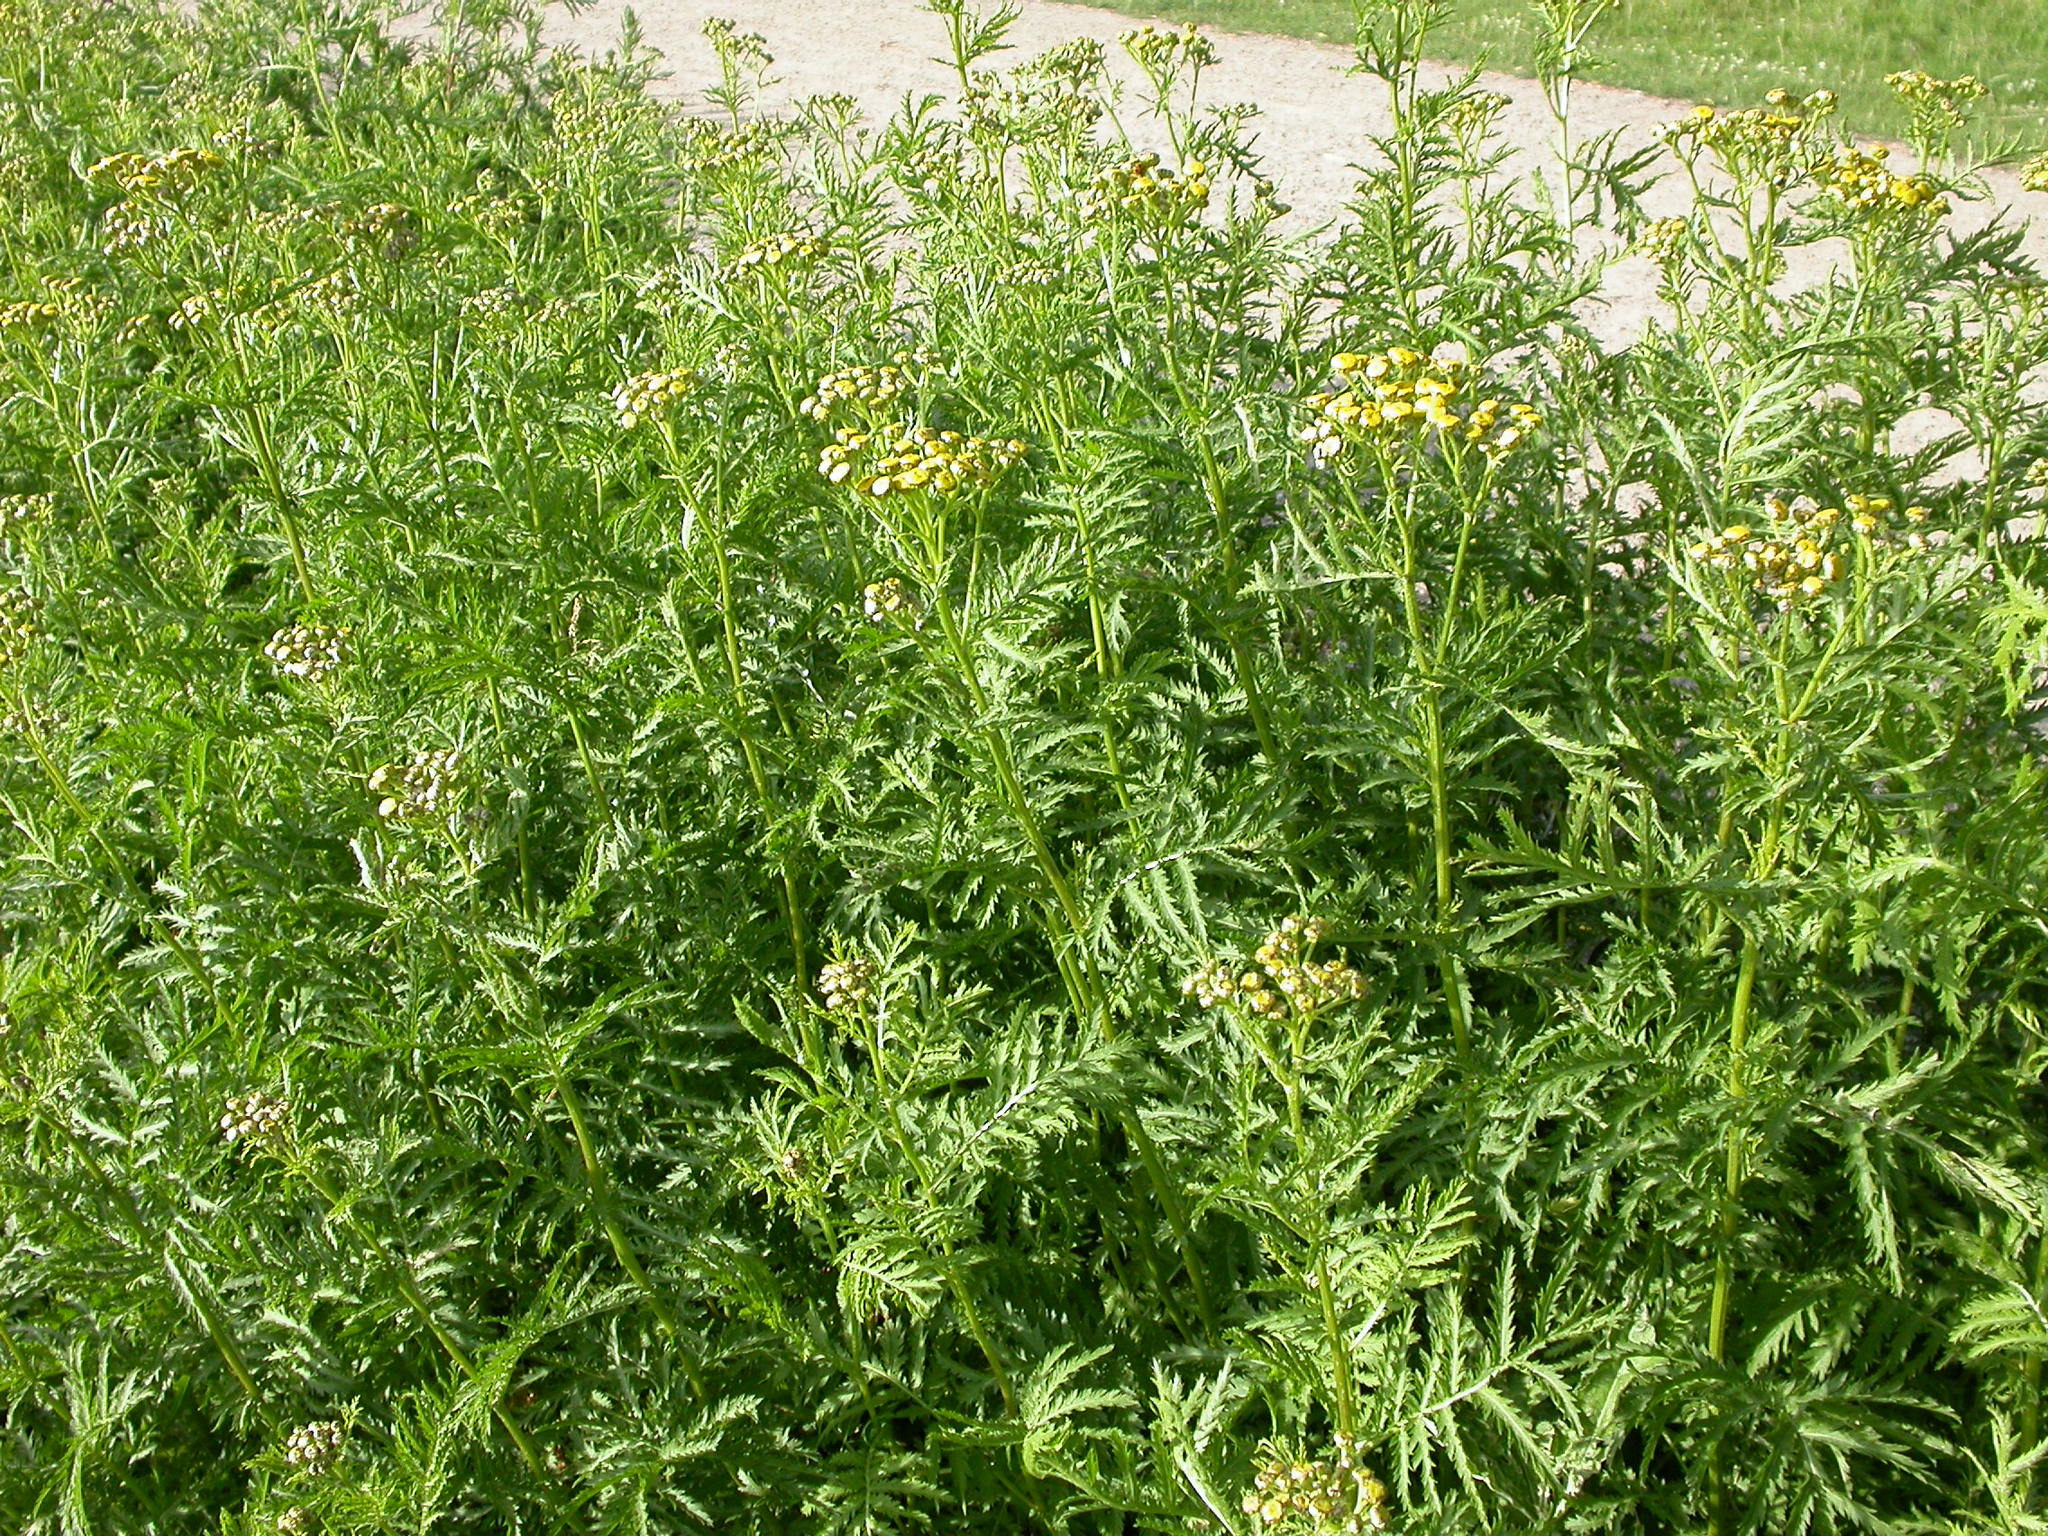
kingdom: Plantae
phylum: Tracheophyta
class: Magnoliopsida
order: Asterales
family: Asteraceae
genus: Tanacetum
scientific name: Tanacetum vulgare
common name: Common tansy
